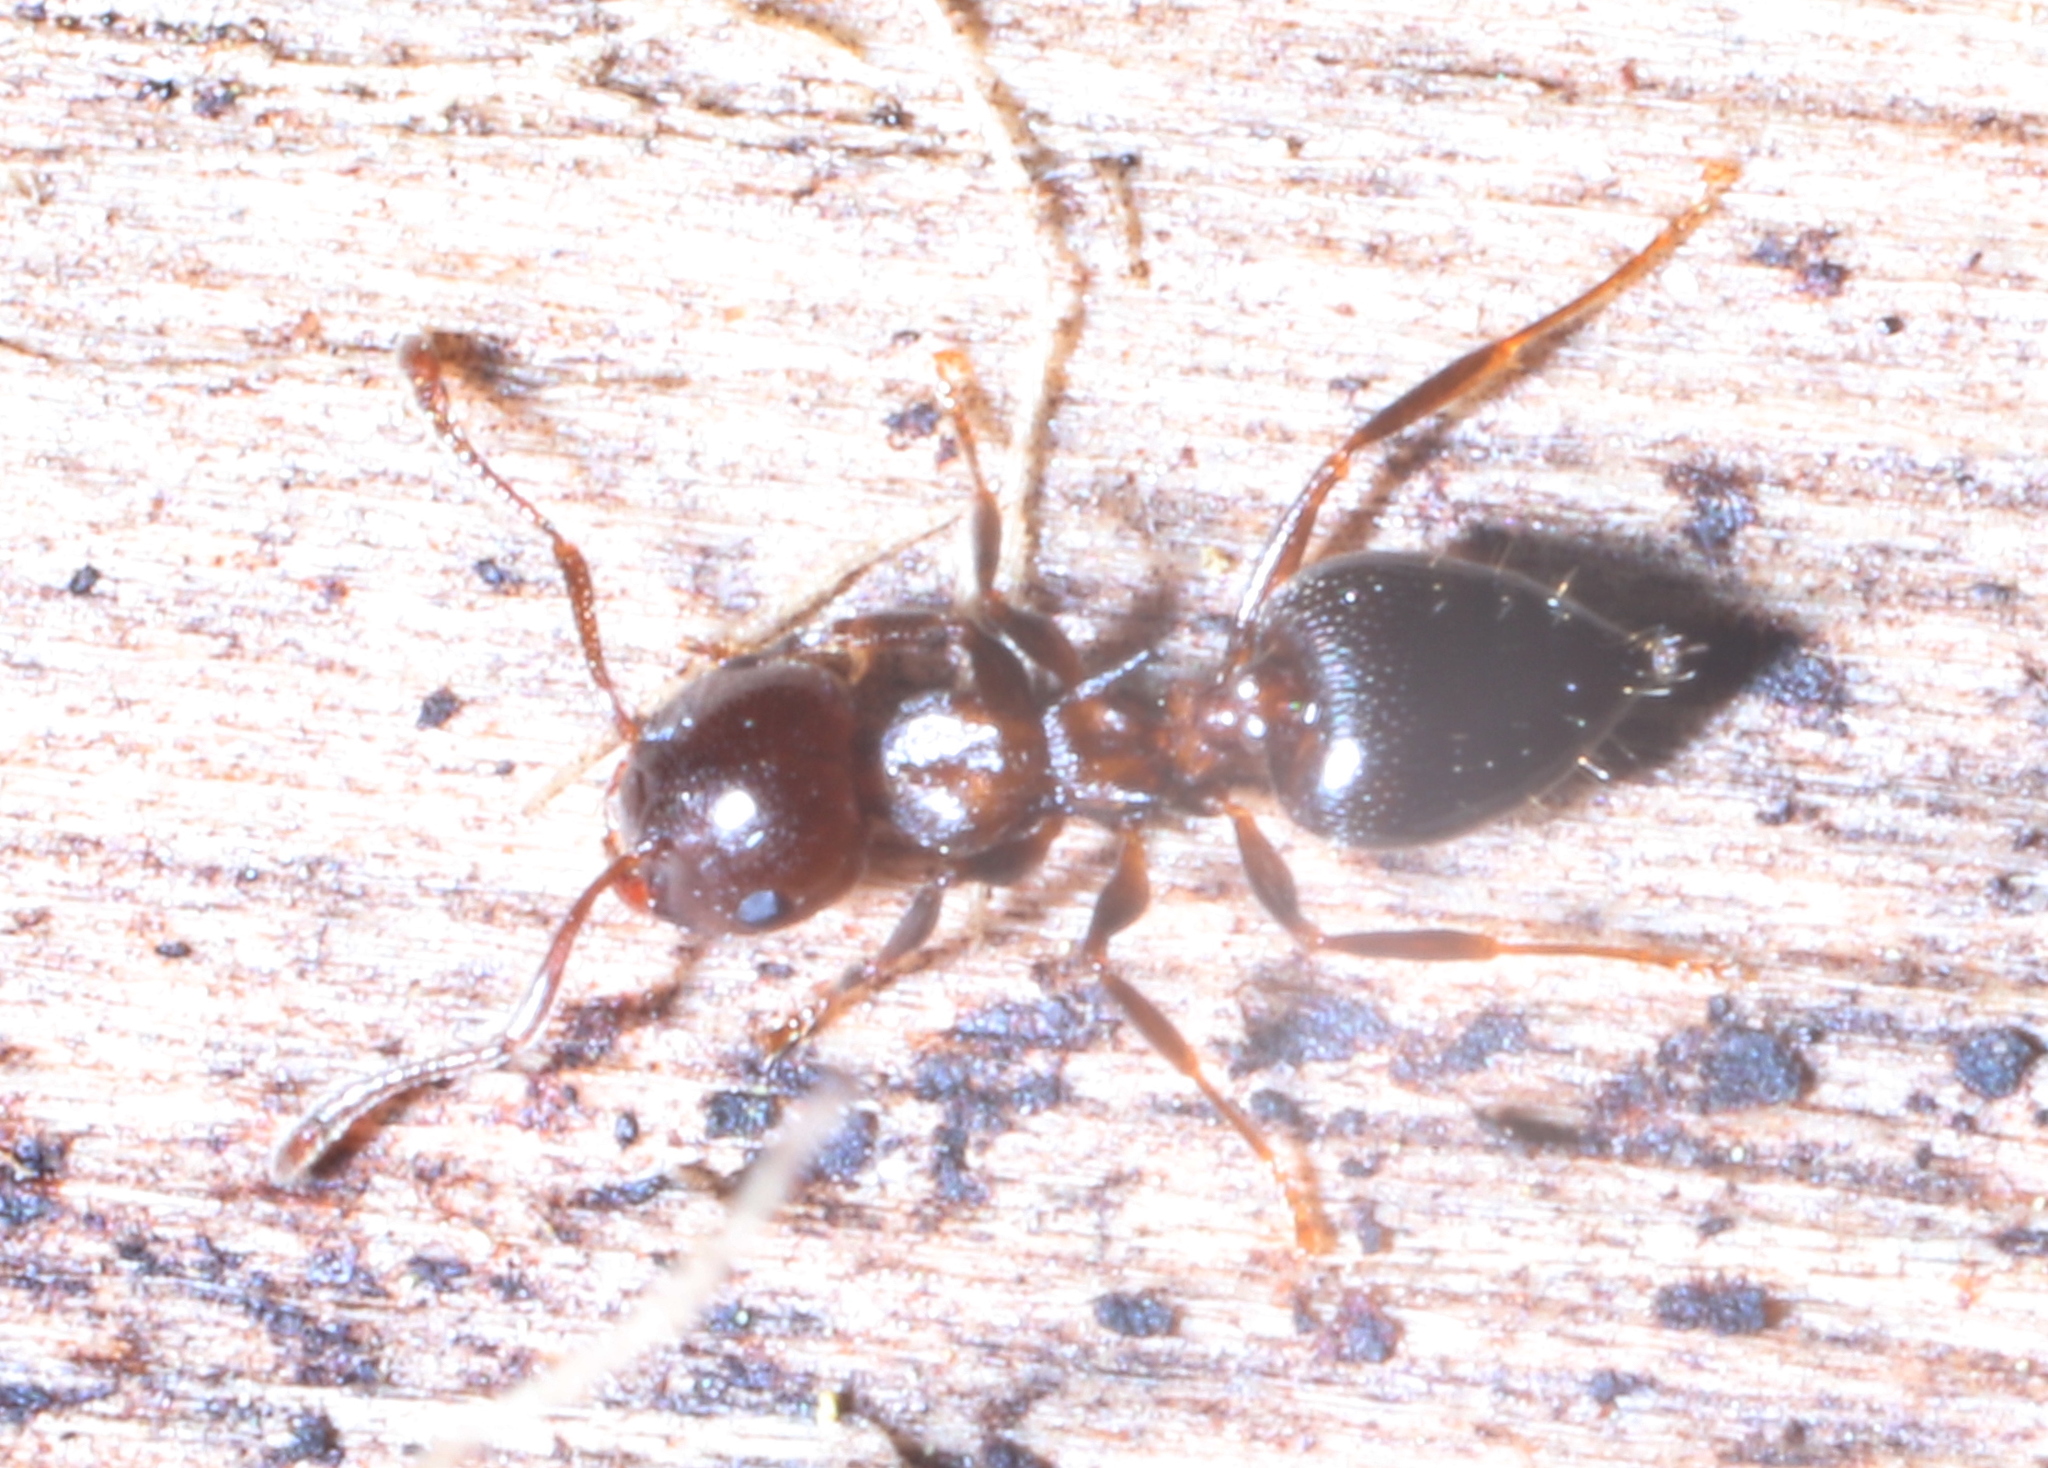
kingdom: Animalia
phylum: Arthropoda
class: Insecta
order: Hymenoptera
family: Formicidae
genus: Crematogaster
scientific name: Crematogaster
